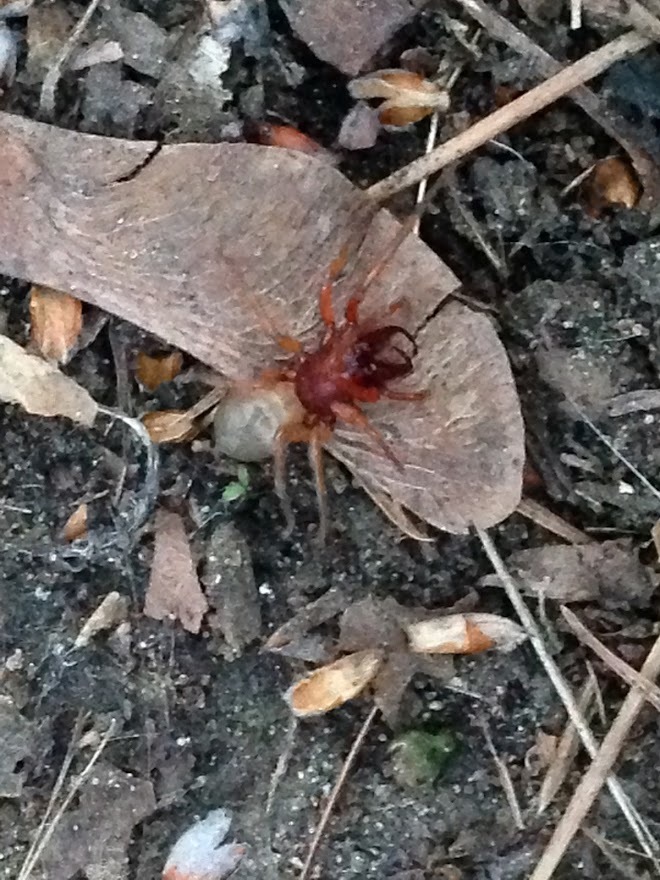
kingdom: Animalia
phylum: Arthropoda
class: Arachnida
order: Araneae
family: Dysderidae
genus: Dysdera
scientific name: Dysdera crocata
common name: Woodlouse spider
